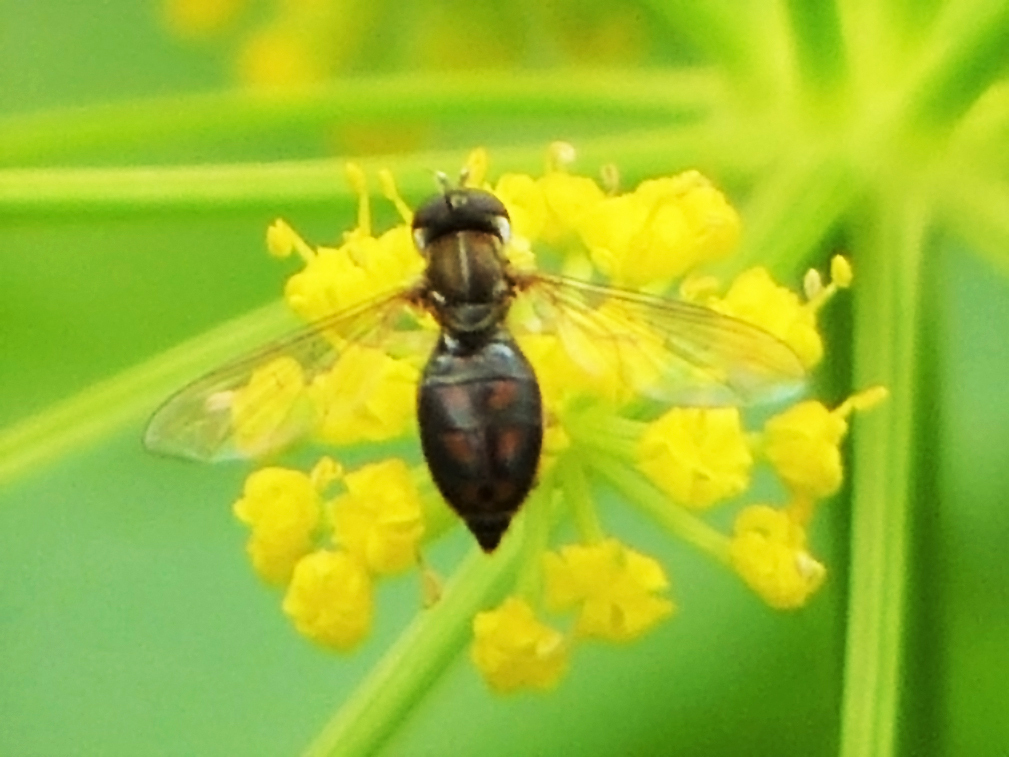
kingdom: Animalia
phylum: Arthropoda
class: Insecta
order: Diptera
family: Syrphidae
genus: Toxomerus
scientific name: Toxomerus marginatus
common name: Syrphid fly
